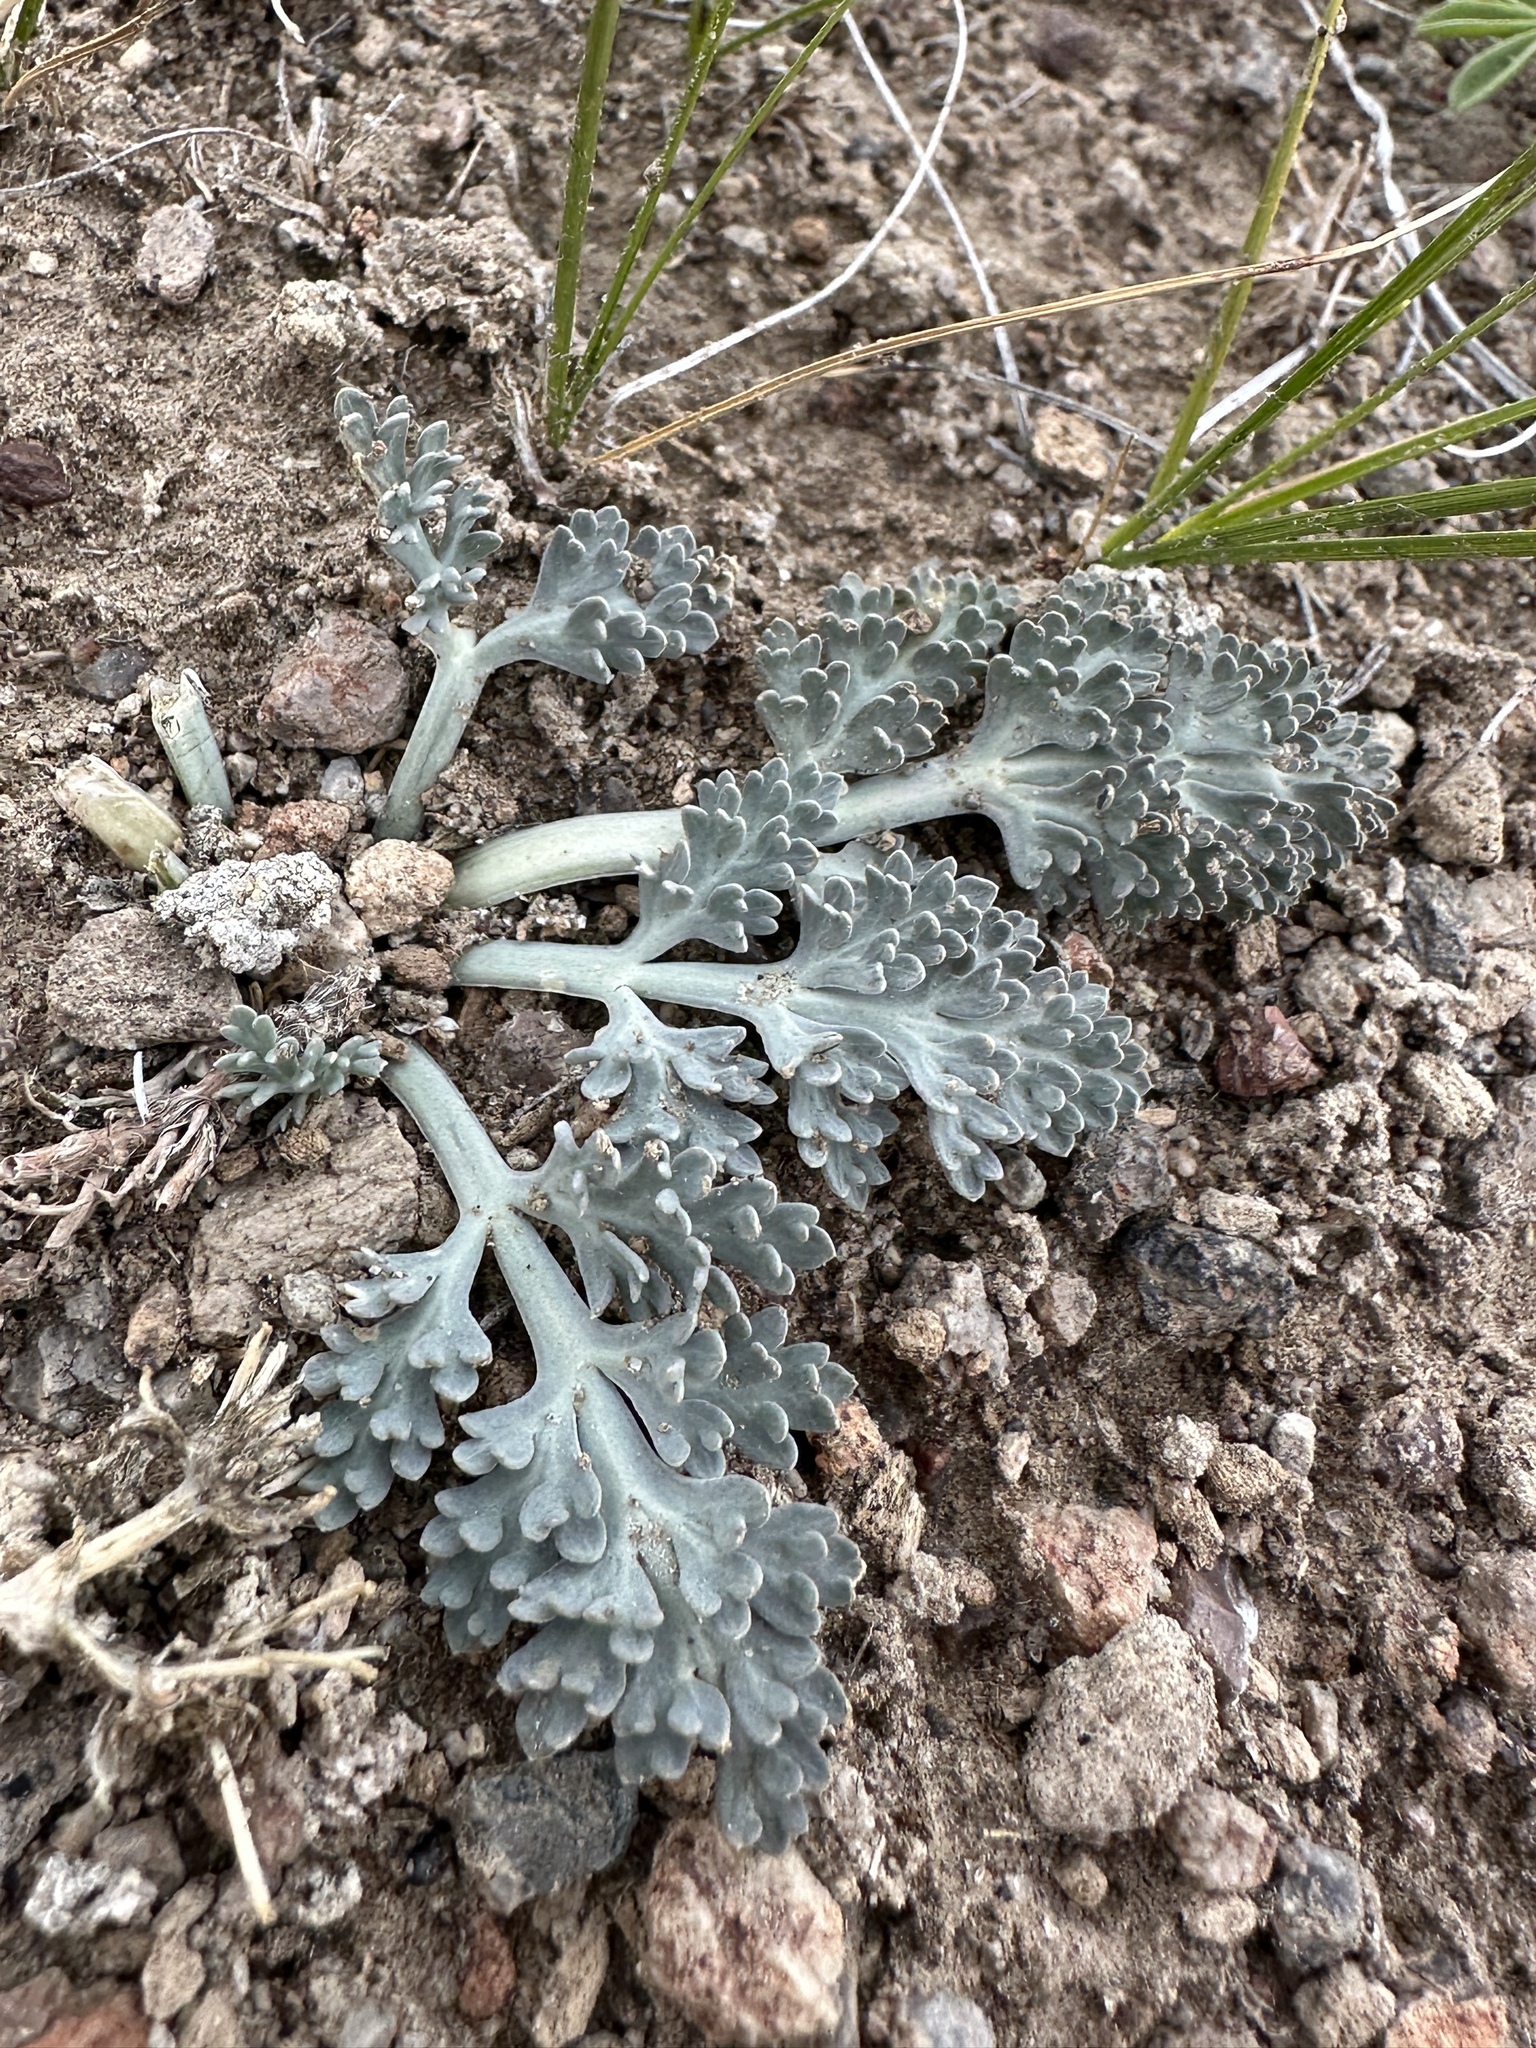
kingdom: Plantae
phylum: Tracheophyta
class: Magnoliopsida
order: Apiales
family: Apiaceae
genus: Vesper
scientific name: Vesper purpurascens
